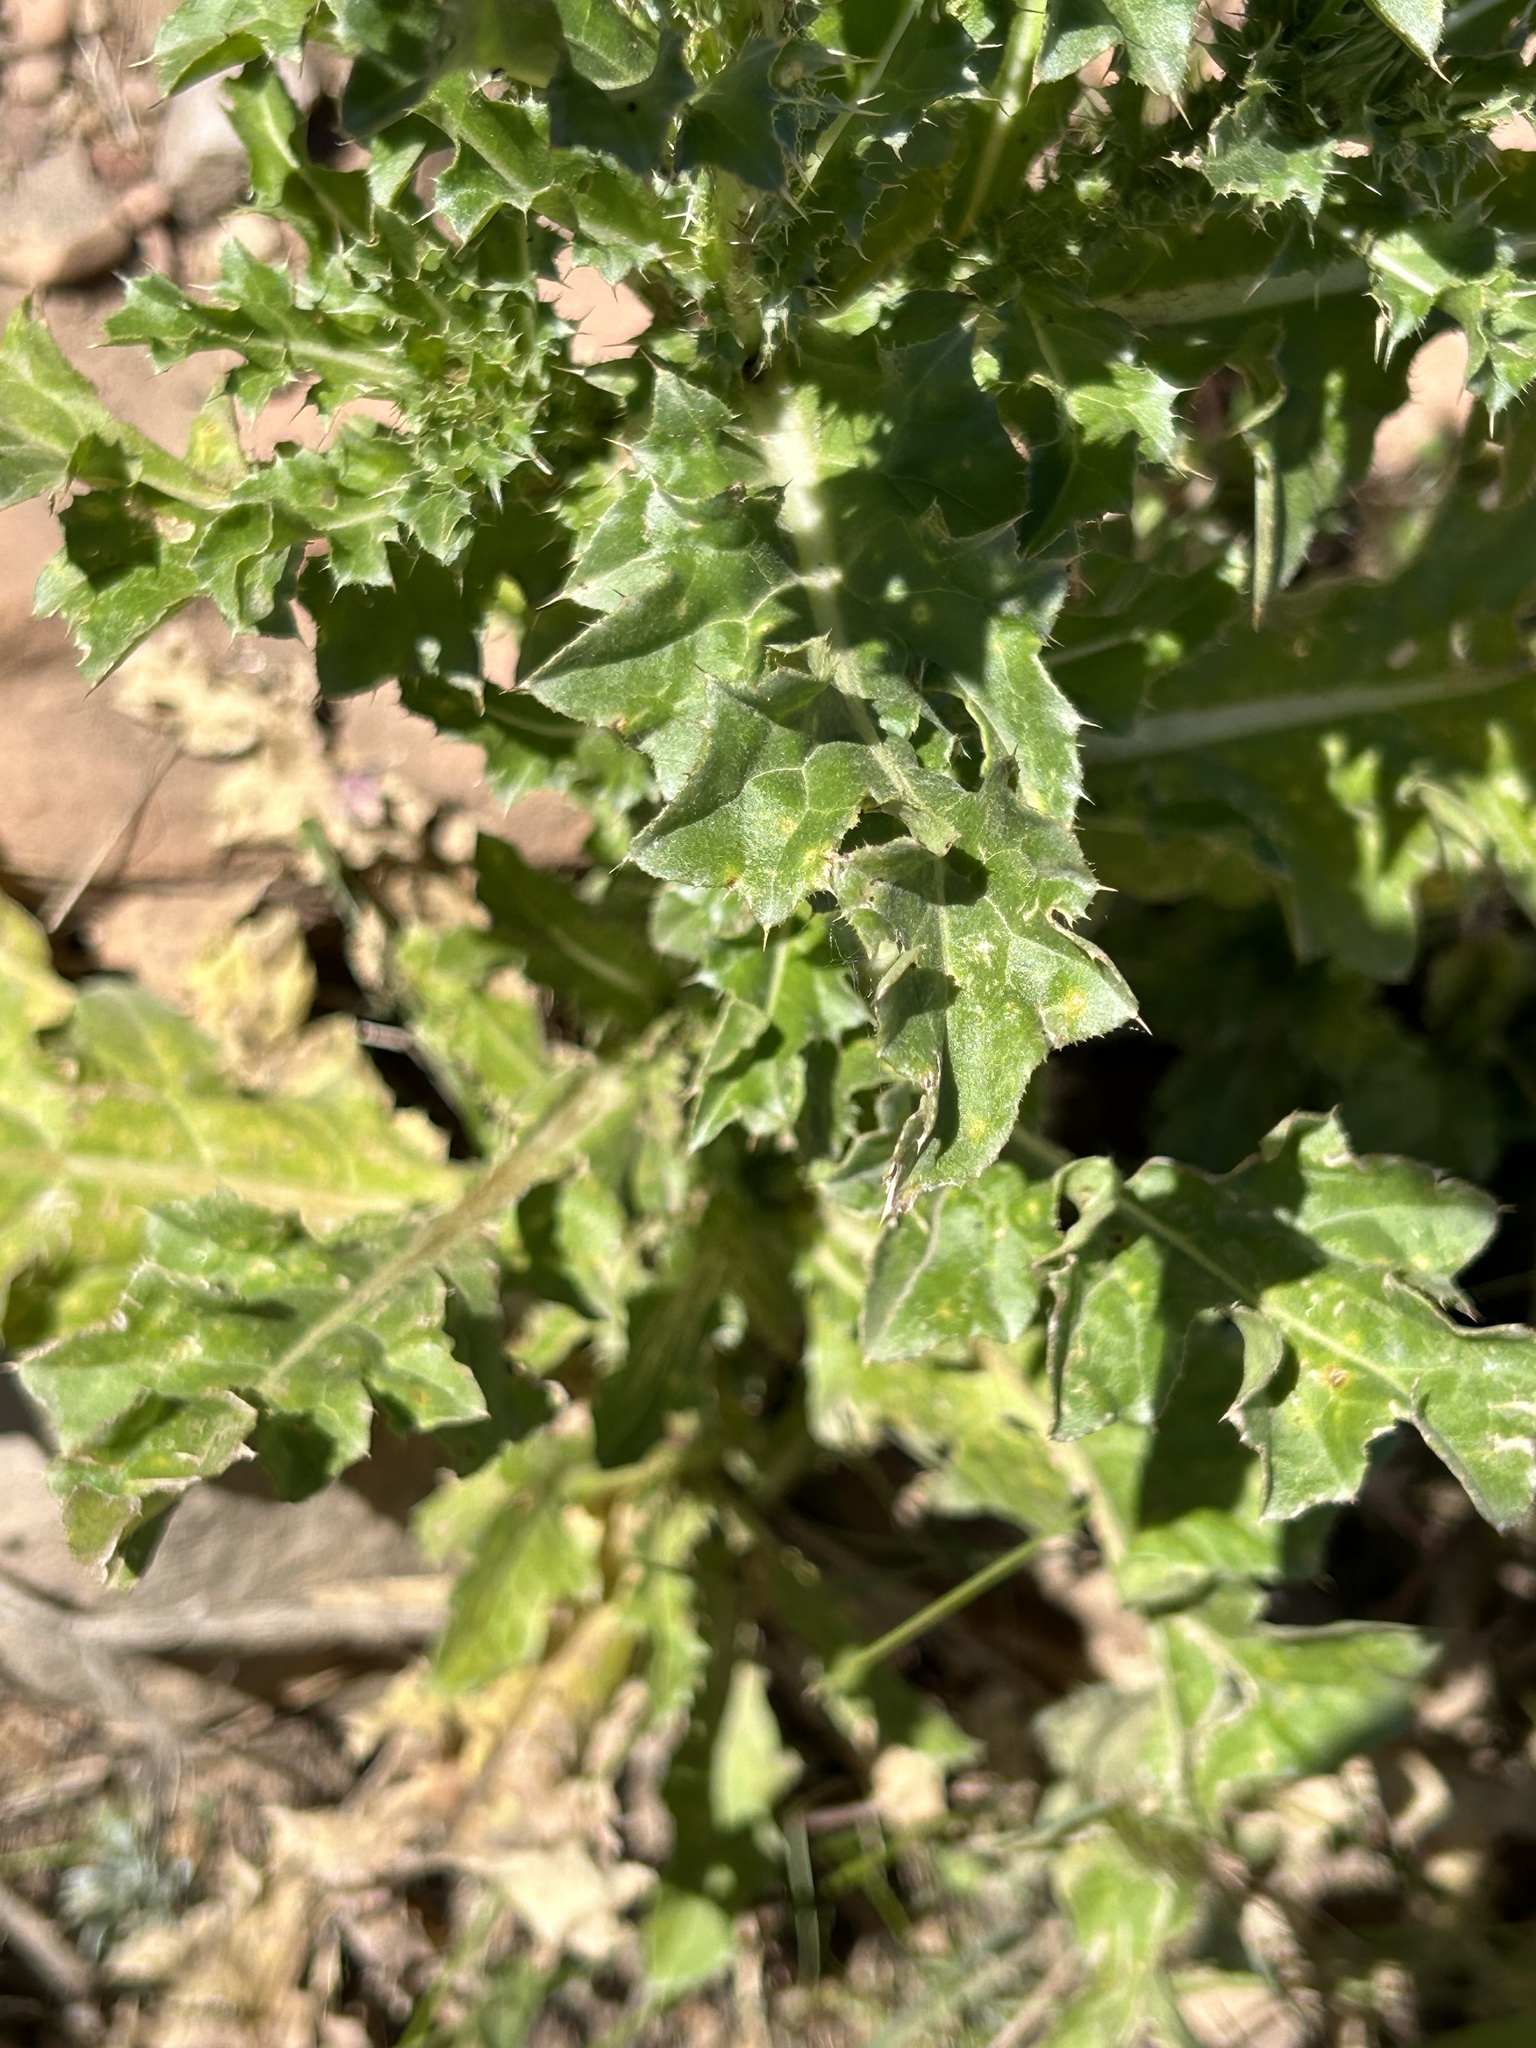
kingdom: Plantae
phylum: Tracheophyta
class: Magnoliopsida
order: Asterales
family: Asteraceae
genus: Carduus
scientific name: Carduus nutans
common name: Musk thistle
